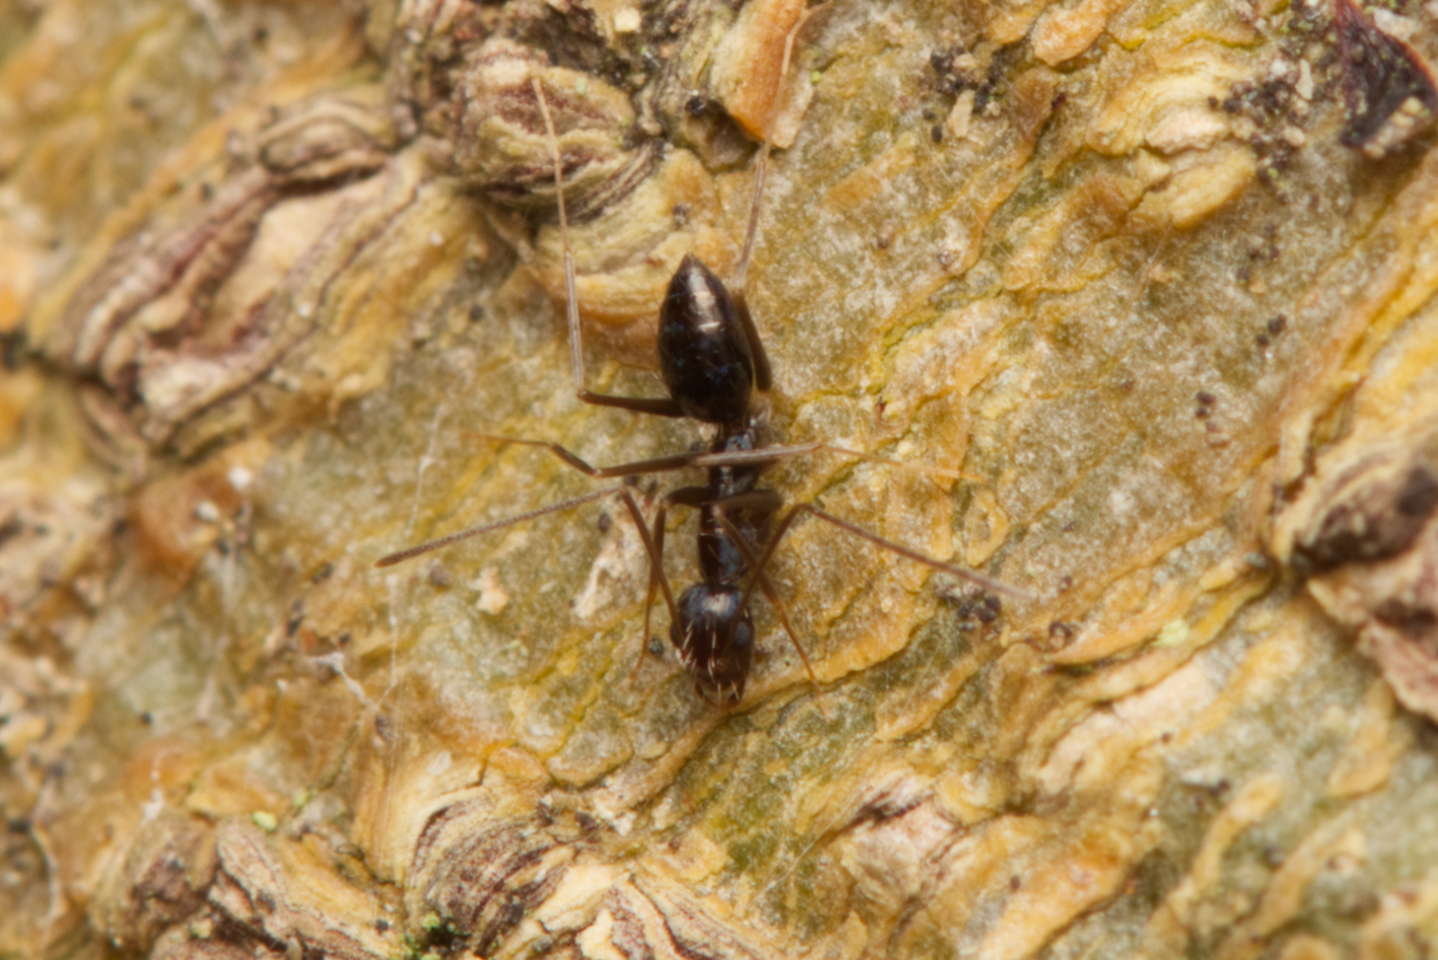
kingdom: Animalia
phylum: Arthropoda
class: Insecta
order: Hymenoptera
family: Formicidae
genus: Paratrechina
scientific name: Paratrechina longicornis
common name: Longhorned crazy ant
